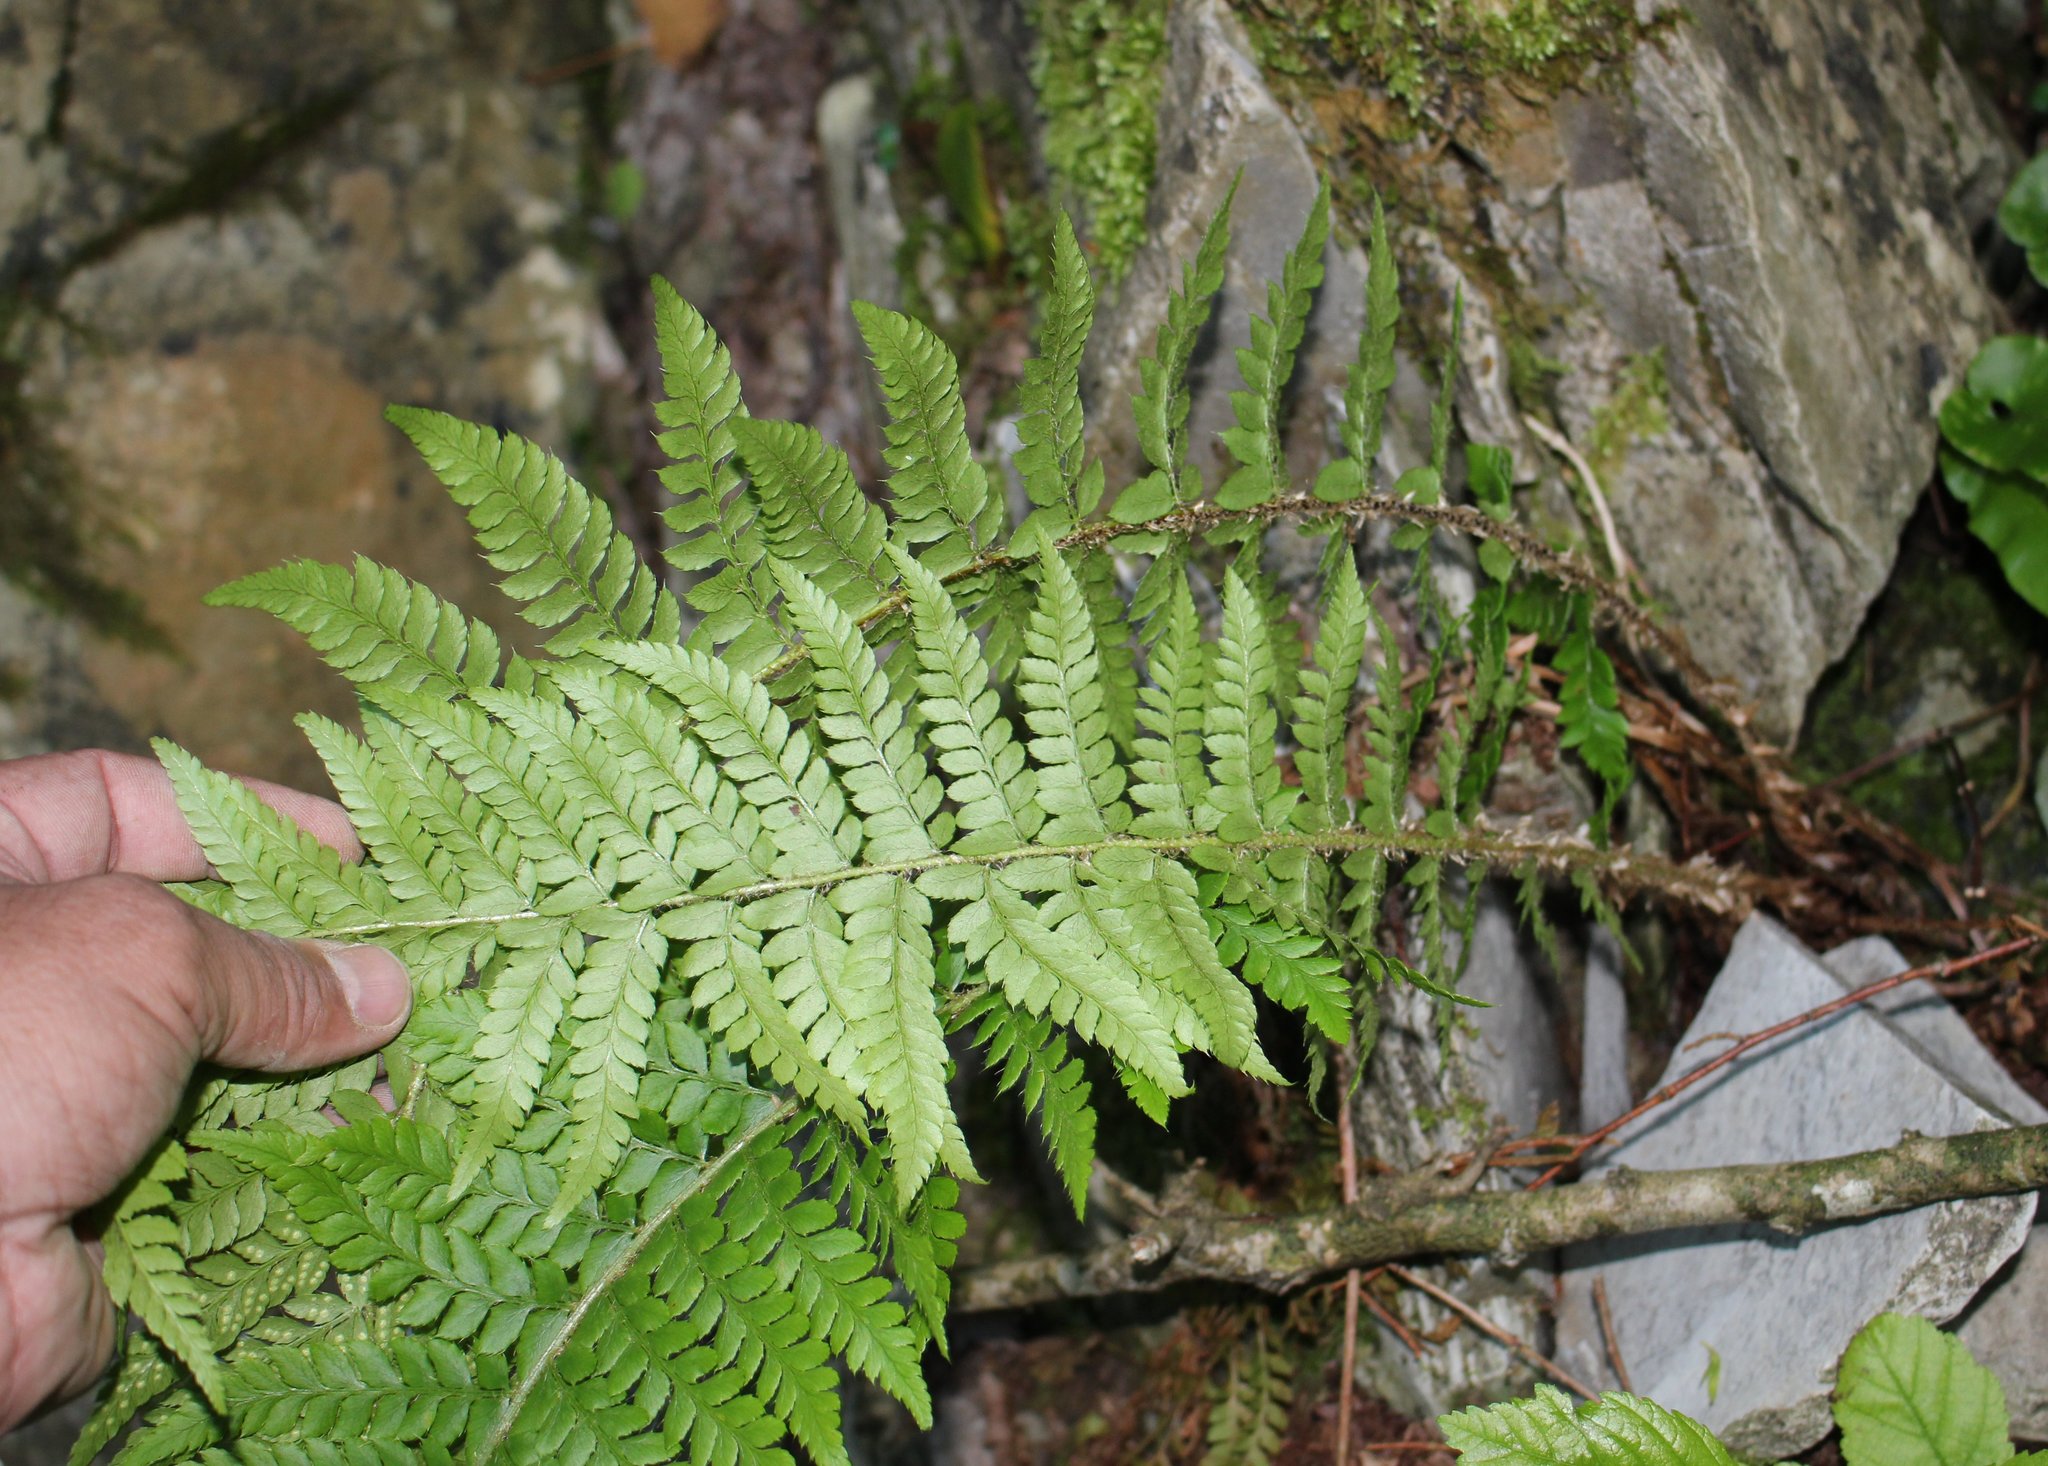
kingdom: Plantae
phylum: Tracheophyta
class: Polypodiopsida
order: Polypodiales
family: Dryopteridaceae
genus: Polystichum
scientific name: Polystichum aculeatum
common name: Hard shield-fern
